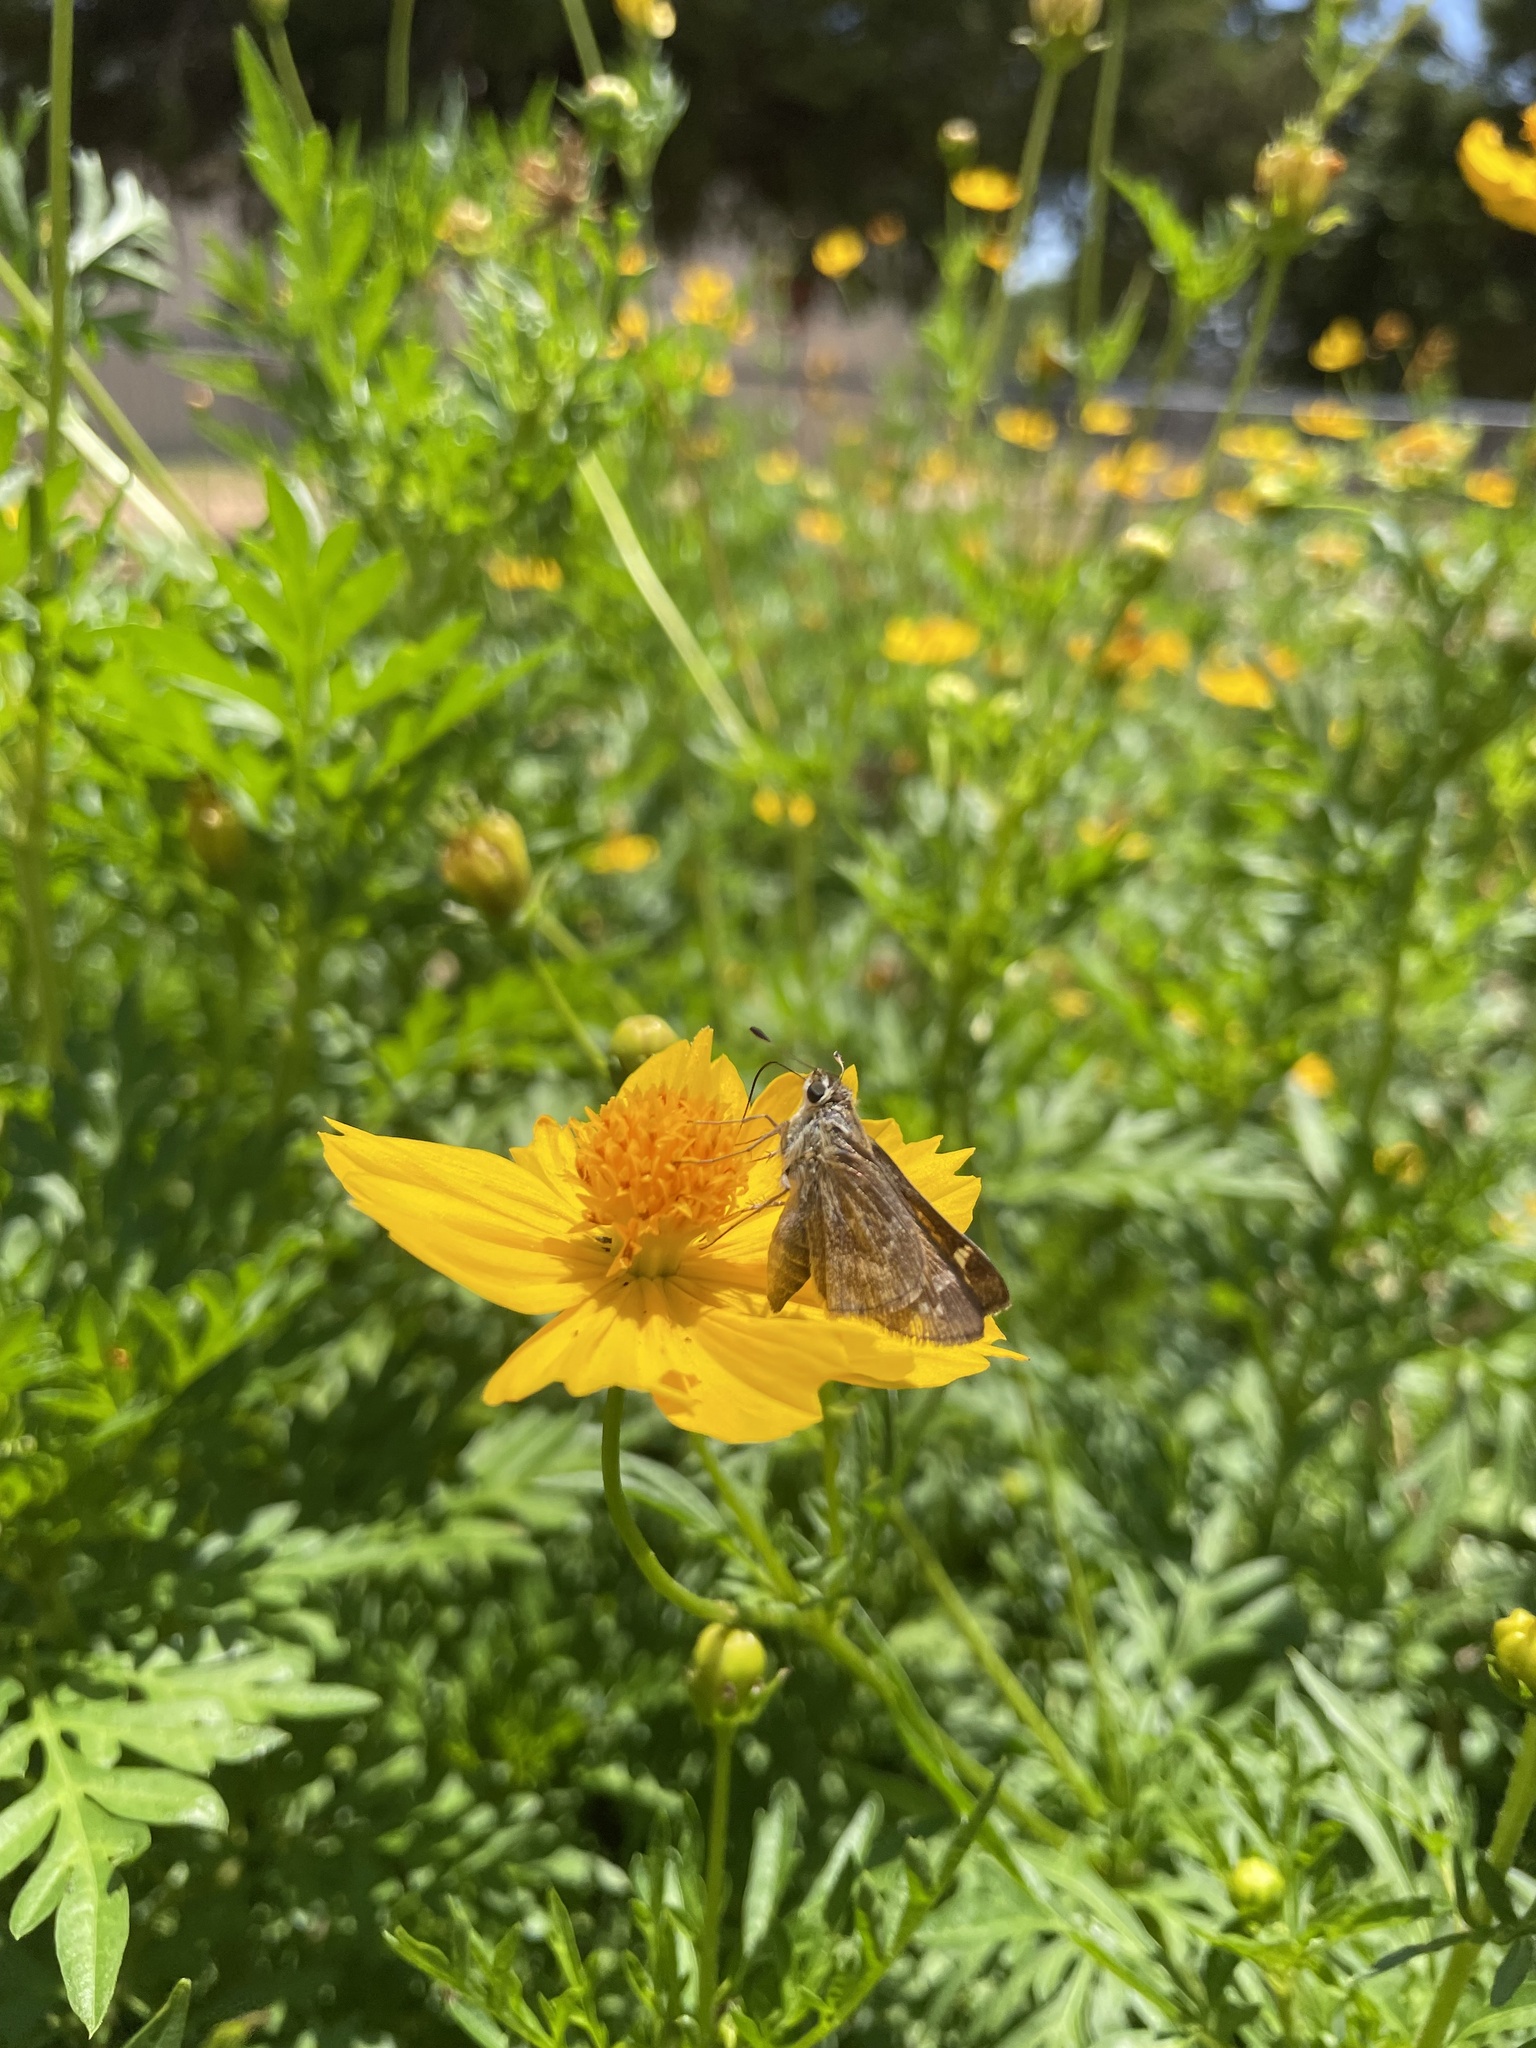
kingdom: Animalia
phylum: Arthropoda
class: Insecta
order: Lepidoptera
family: Hesperiidae
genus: Atalopedes
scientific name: Atalopedes
